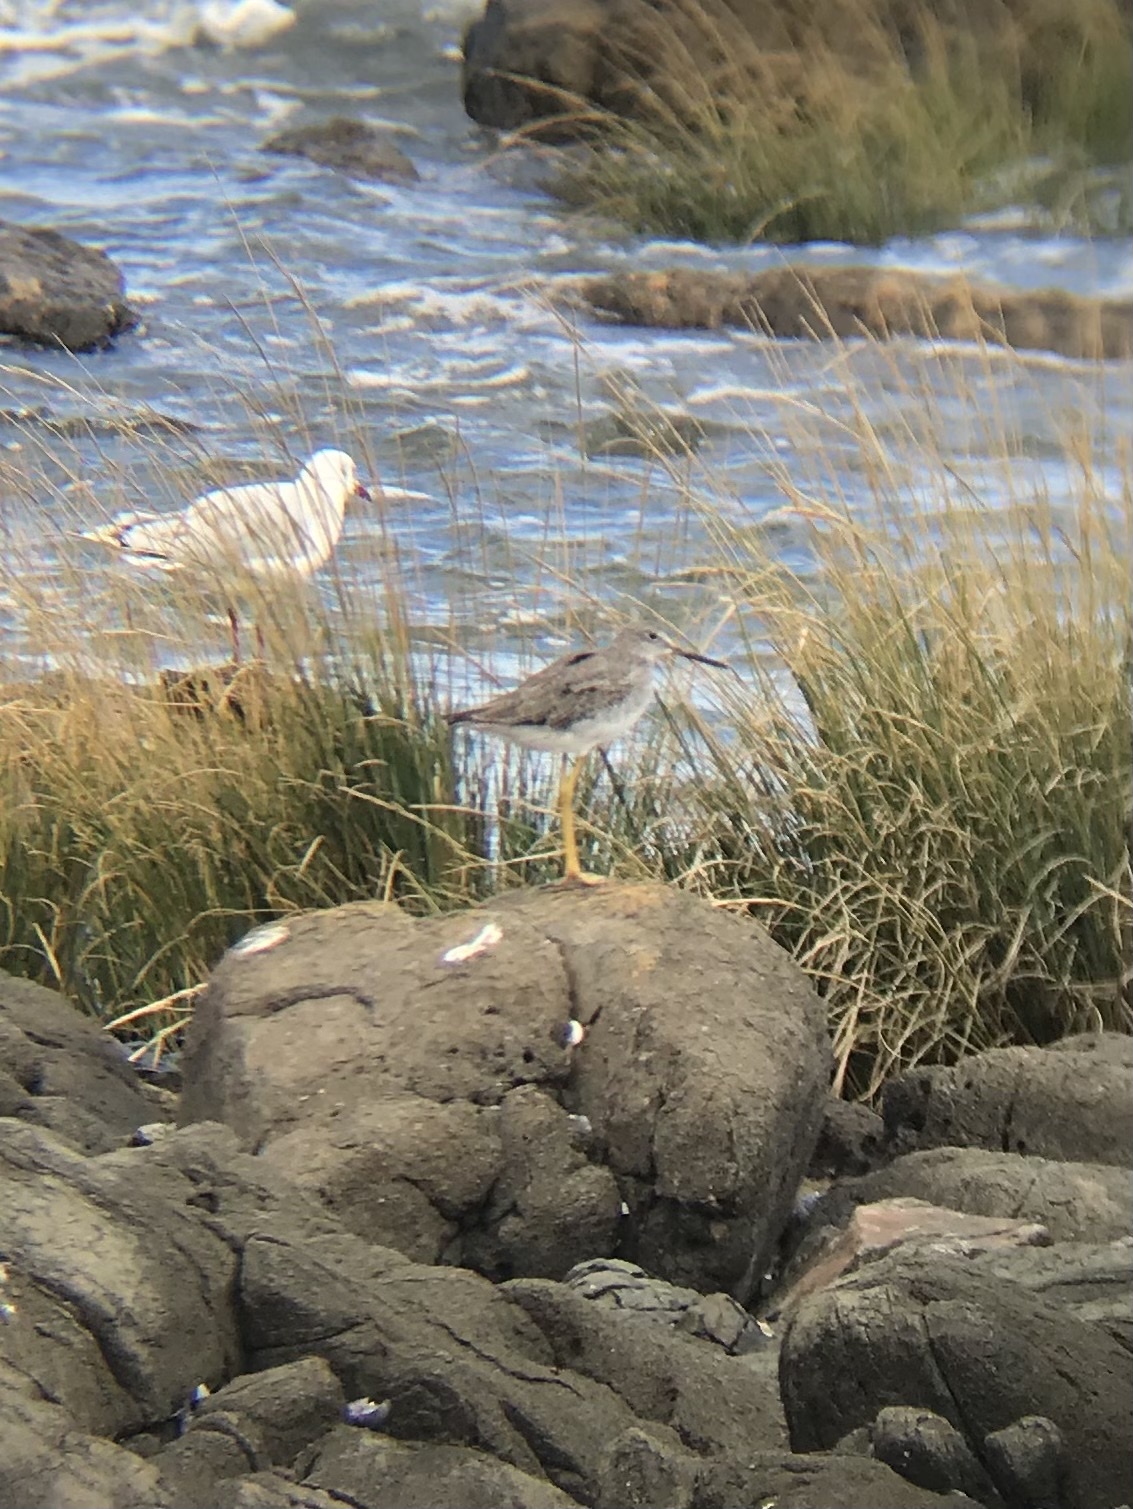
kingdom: Animalia
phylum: Chordata
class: Aves
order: Charadriiformes
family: Scolopacidae
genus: Tringa
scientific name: Tringa melanoleuca
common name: Greater yellowlegs
